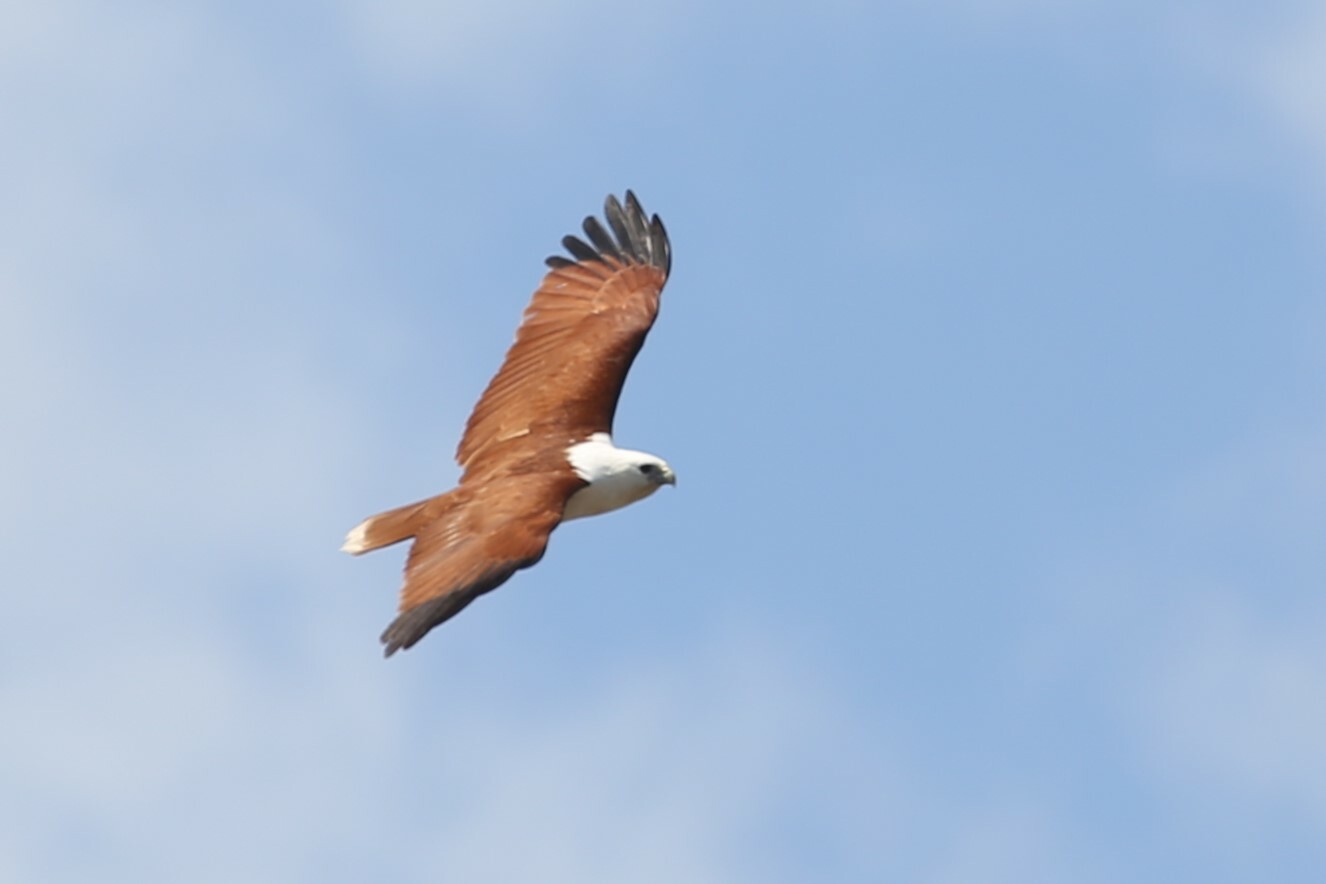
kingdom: Animalia
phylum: Chordata
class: Aves
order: Accipitriformes
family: Accipitridae
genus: Haliastur
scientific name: Haliastur indus
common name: Brahminy kite
